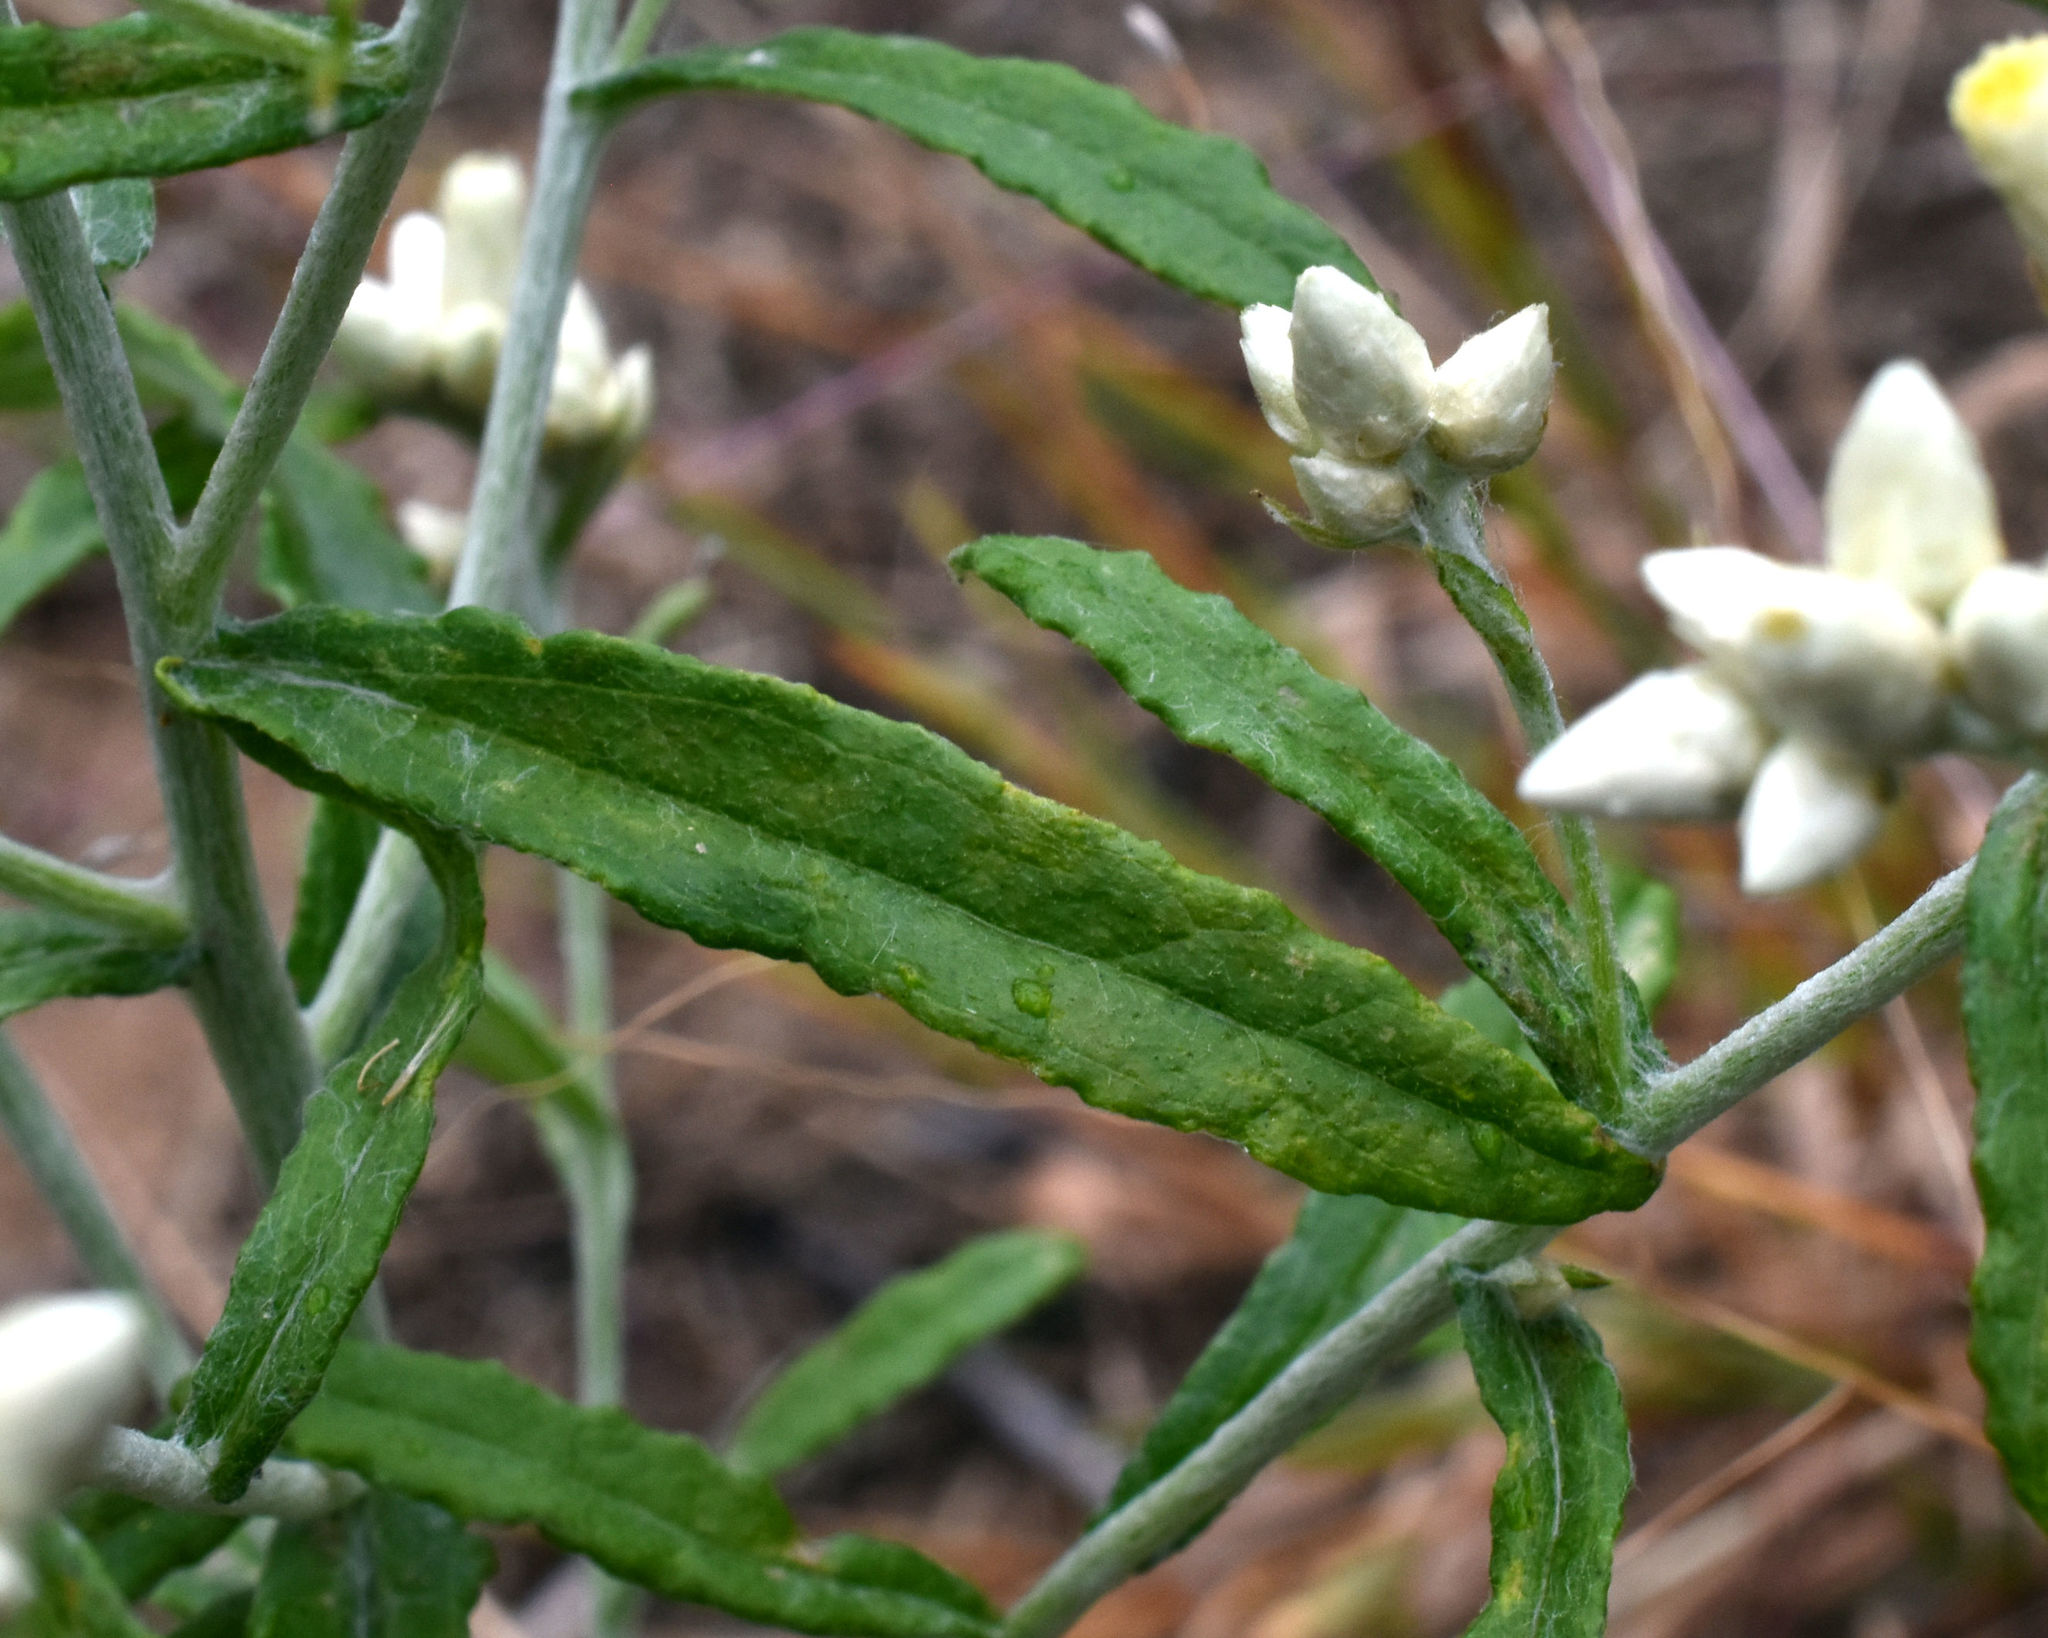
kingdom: Plantae
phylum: Tracheophyta
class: Magnoliopsida
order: Asterales
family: Asteraceae
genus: Pseudognaphalium
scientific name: Pseudognaphalium obtusifolium
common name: Eastern rabbit-tobacco
